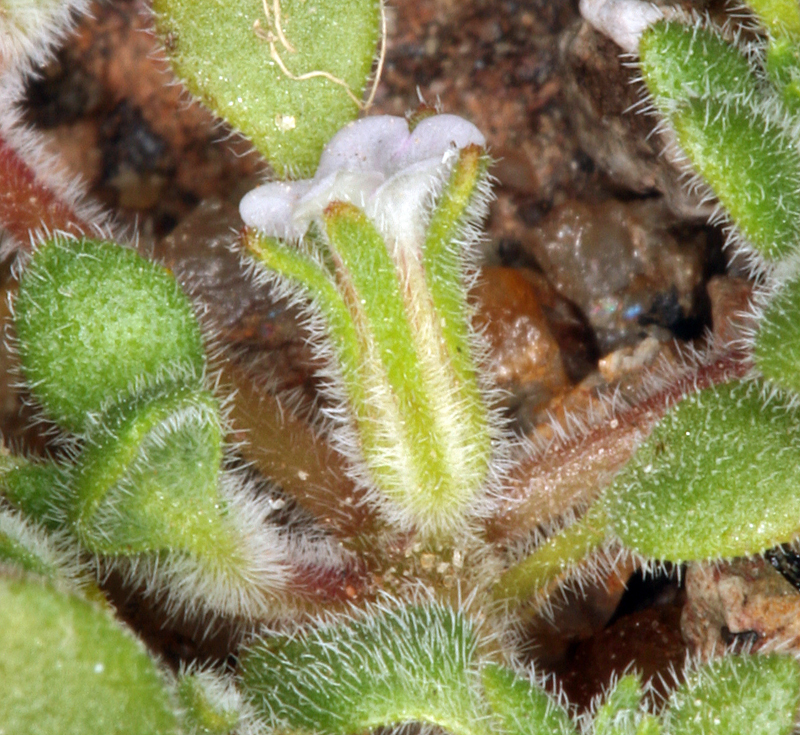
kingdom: Plantae
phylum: Tracheophyta
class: Magnoliopsida
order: Boraginales
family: Namaceae
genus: Nama
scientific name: Nama pusilla
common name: Eggleaf nama
